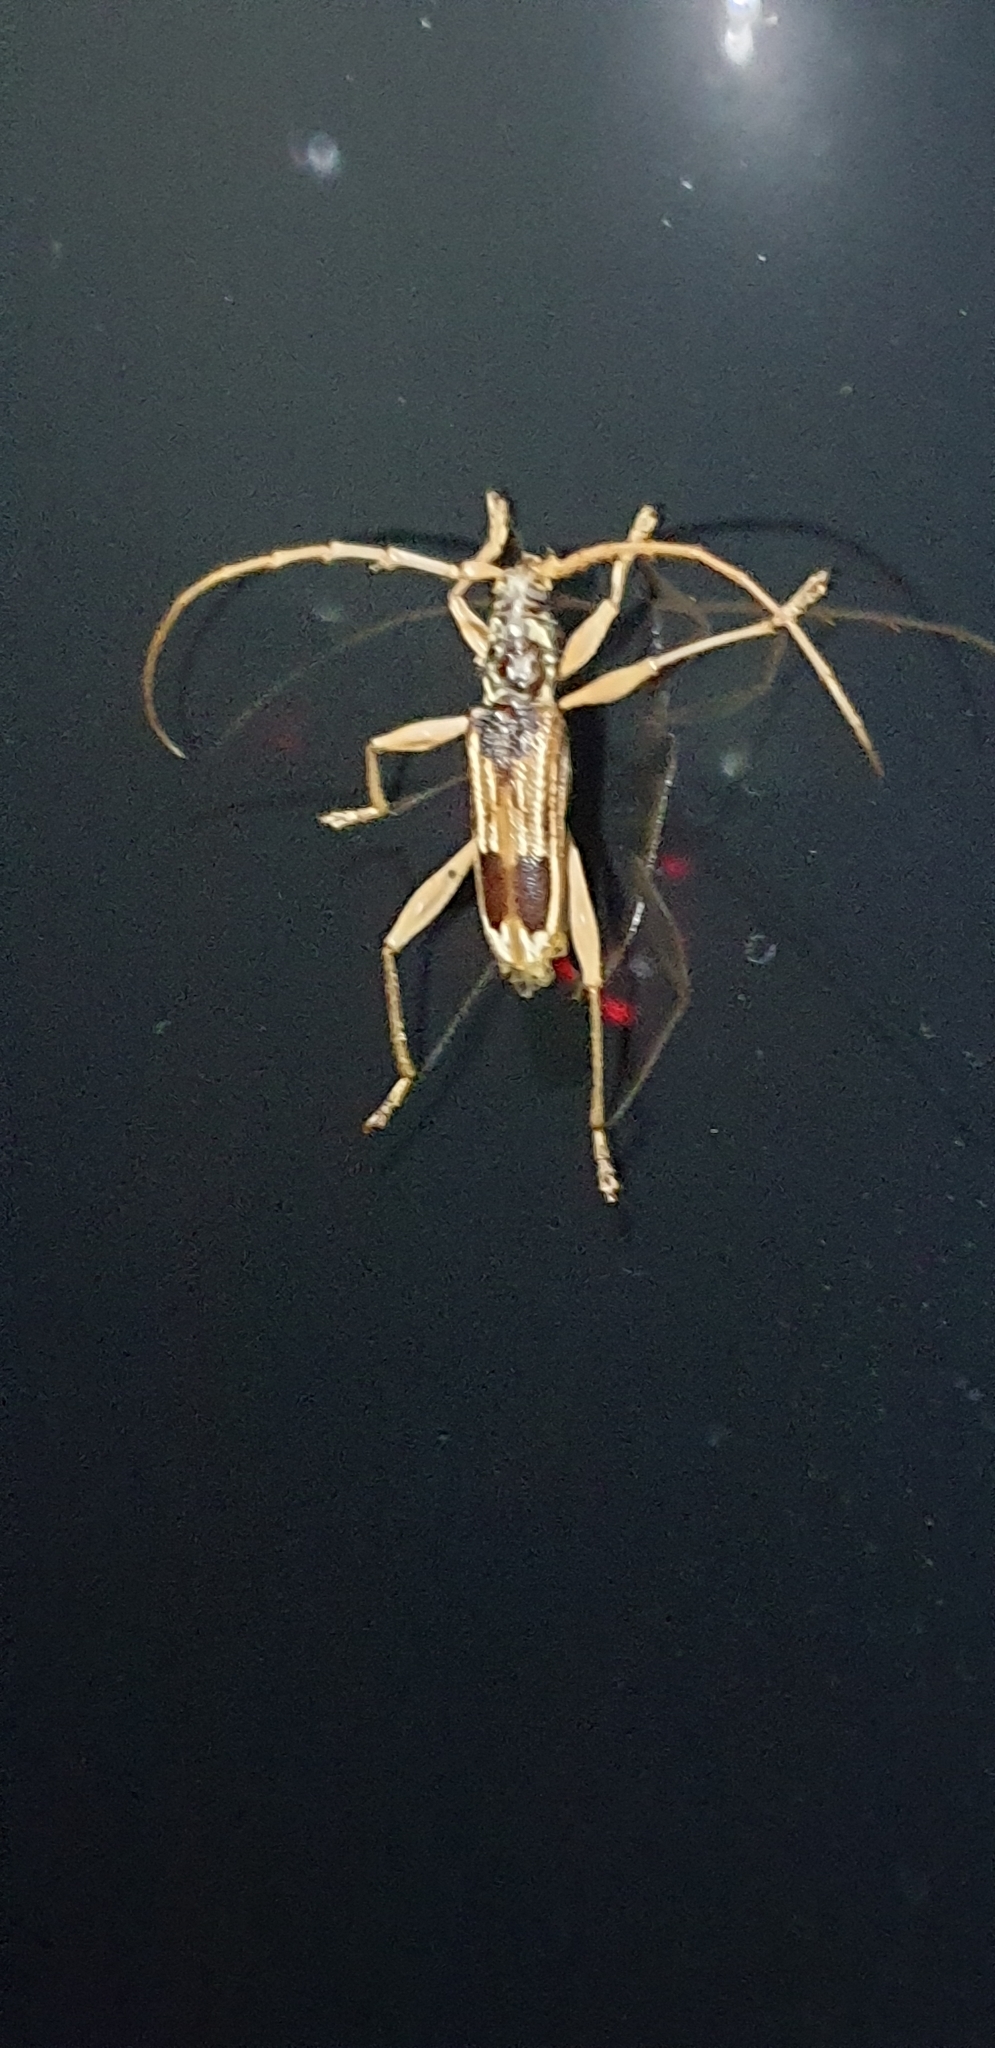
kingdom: Animalia
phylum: Arthropoda
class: Insecta
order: Coleoptera
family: Cerambycidae
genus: Phoracantha
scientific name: Phoracantha savesi
